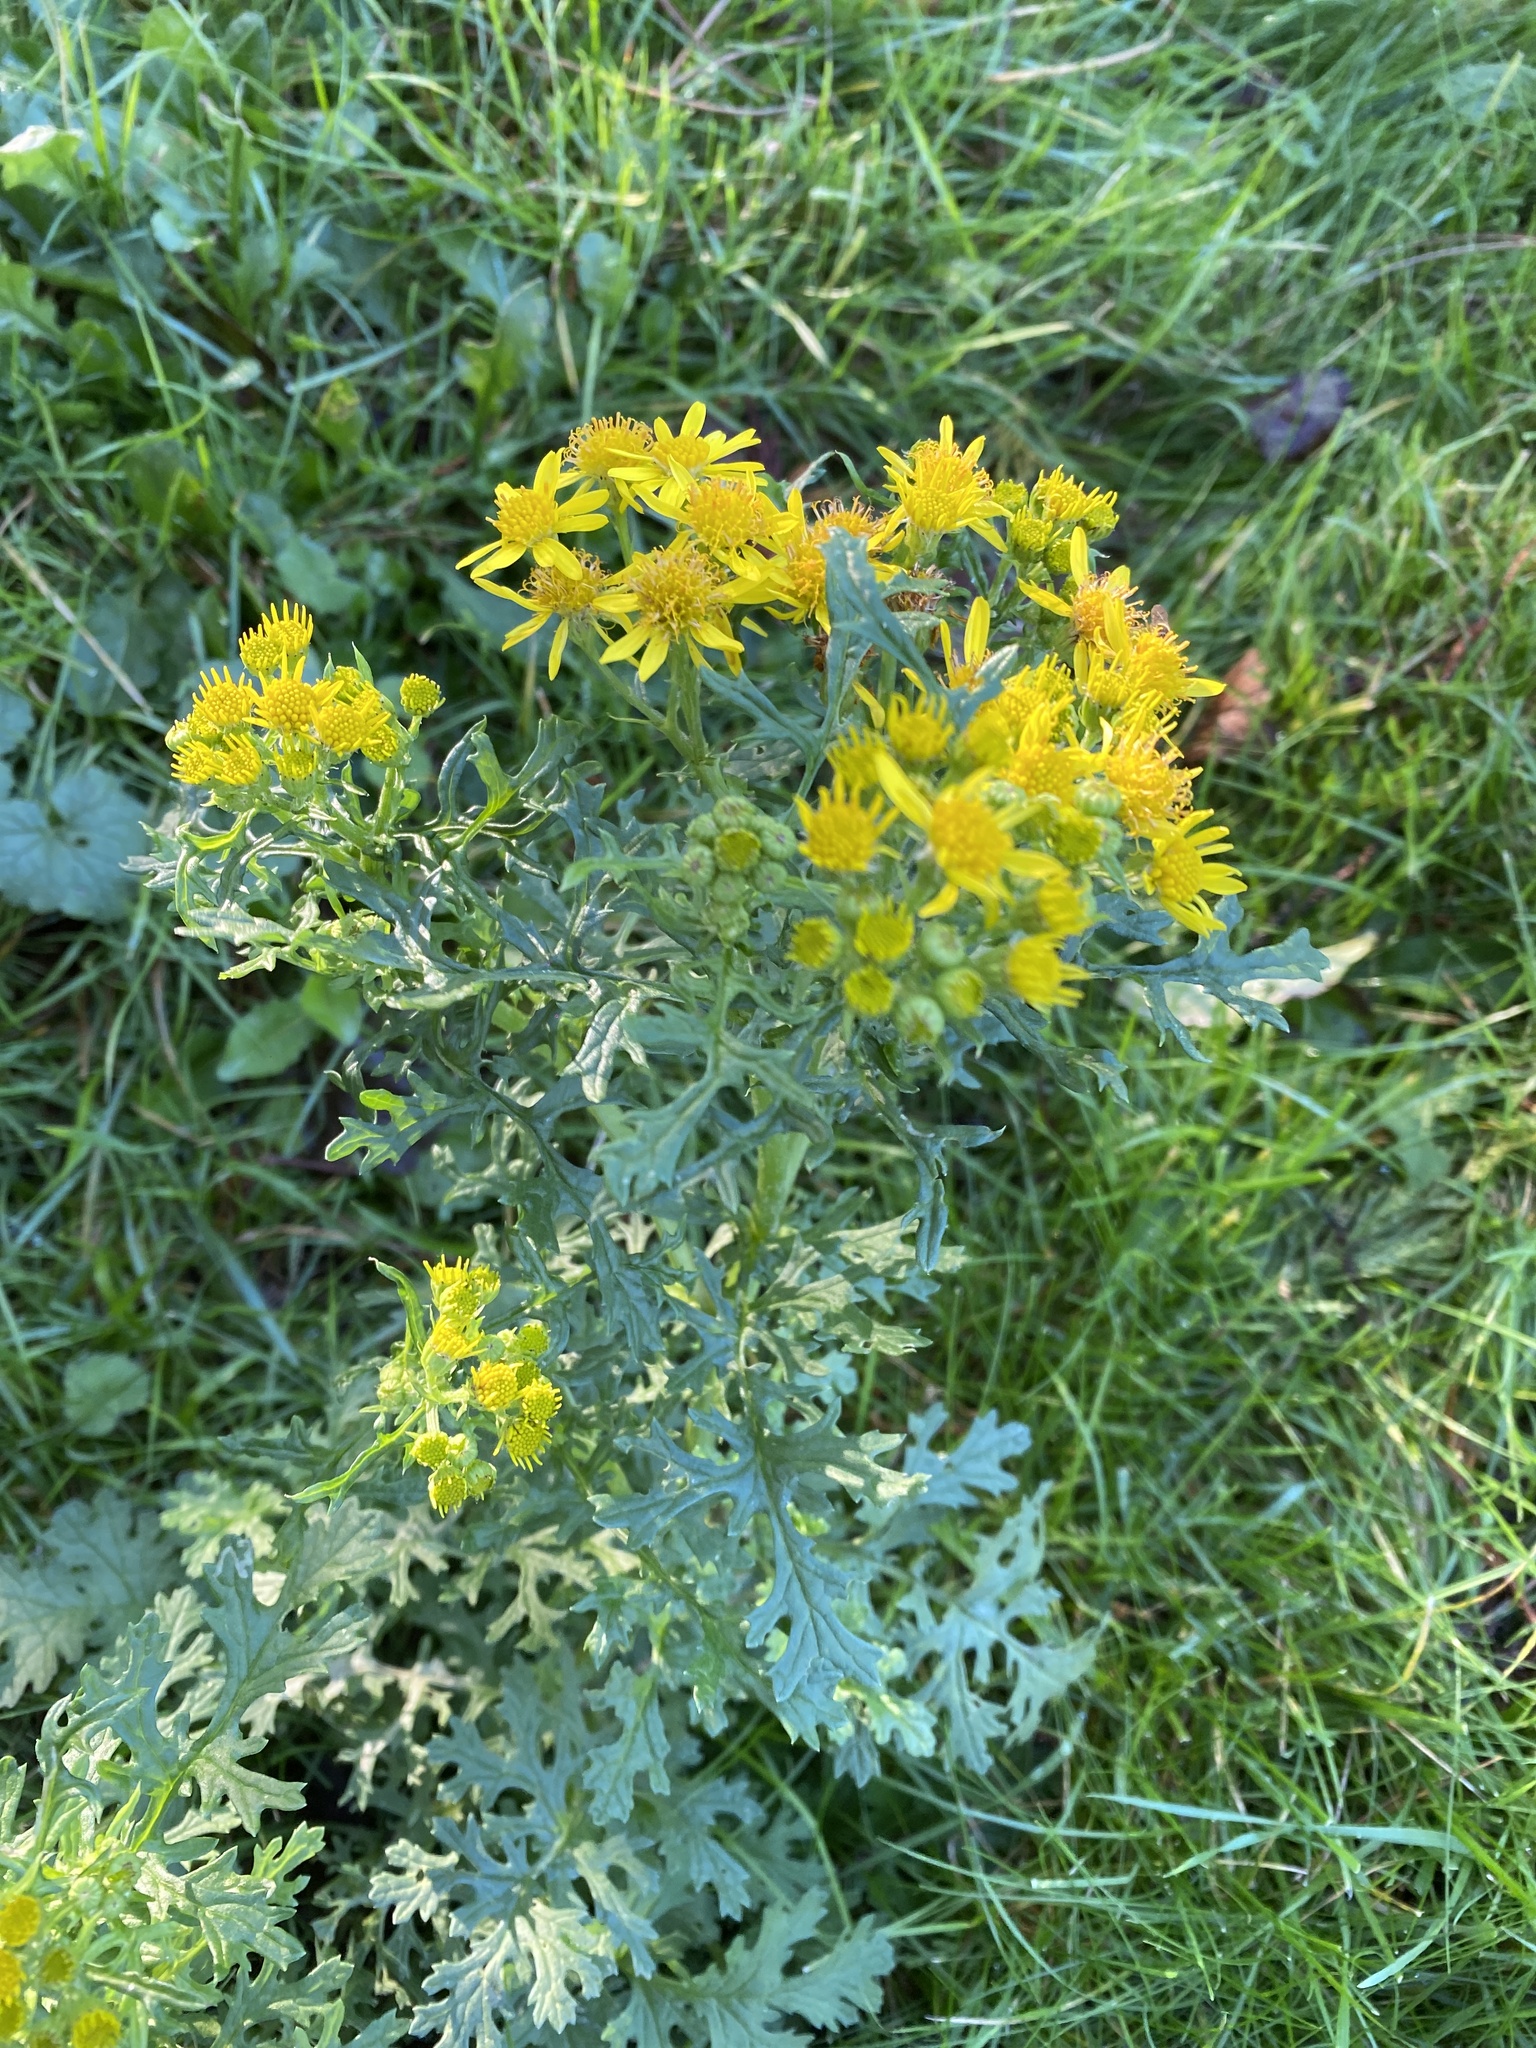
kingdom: Plantae
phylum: Tracheophyta
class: Magnoliopsida
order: Asterales
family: Asteraceae
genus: Jacobaea
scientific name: Jacobaea vulgaris
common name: Stinking willie
